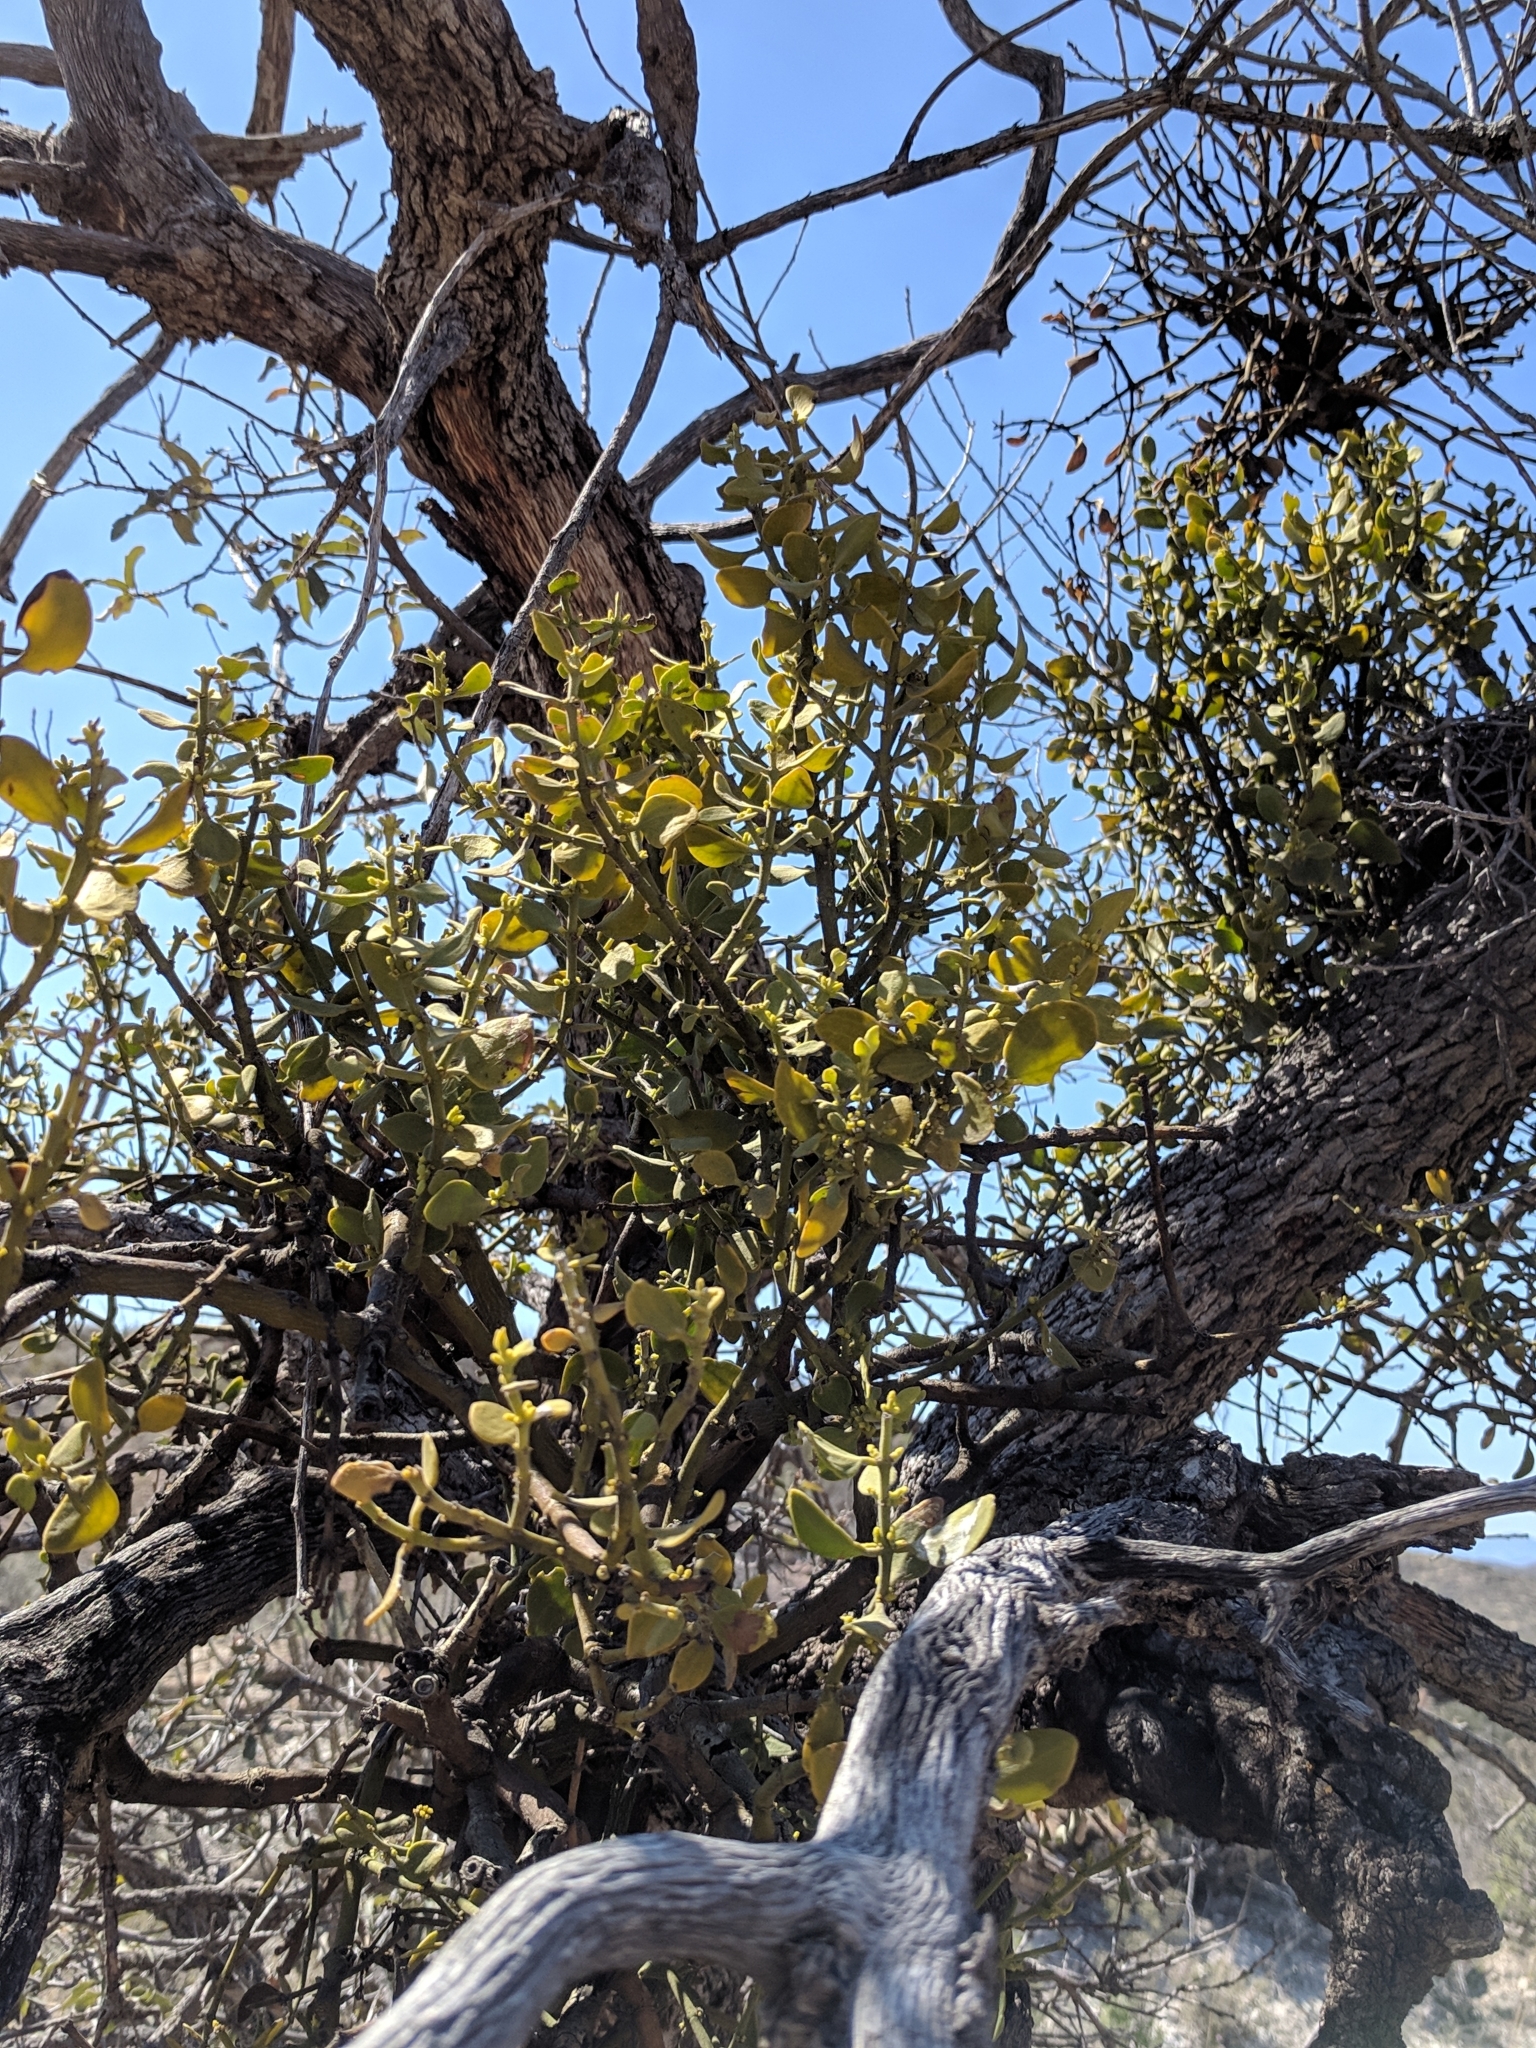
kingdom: Plantae
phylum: Tracheophyta
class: Magnoliopsida
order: Santalales
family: Viscaceae
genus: Phoradendron
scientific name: Phoradendron leucarpum
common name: Pacific mistletoe
